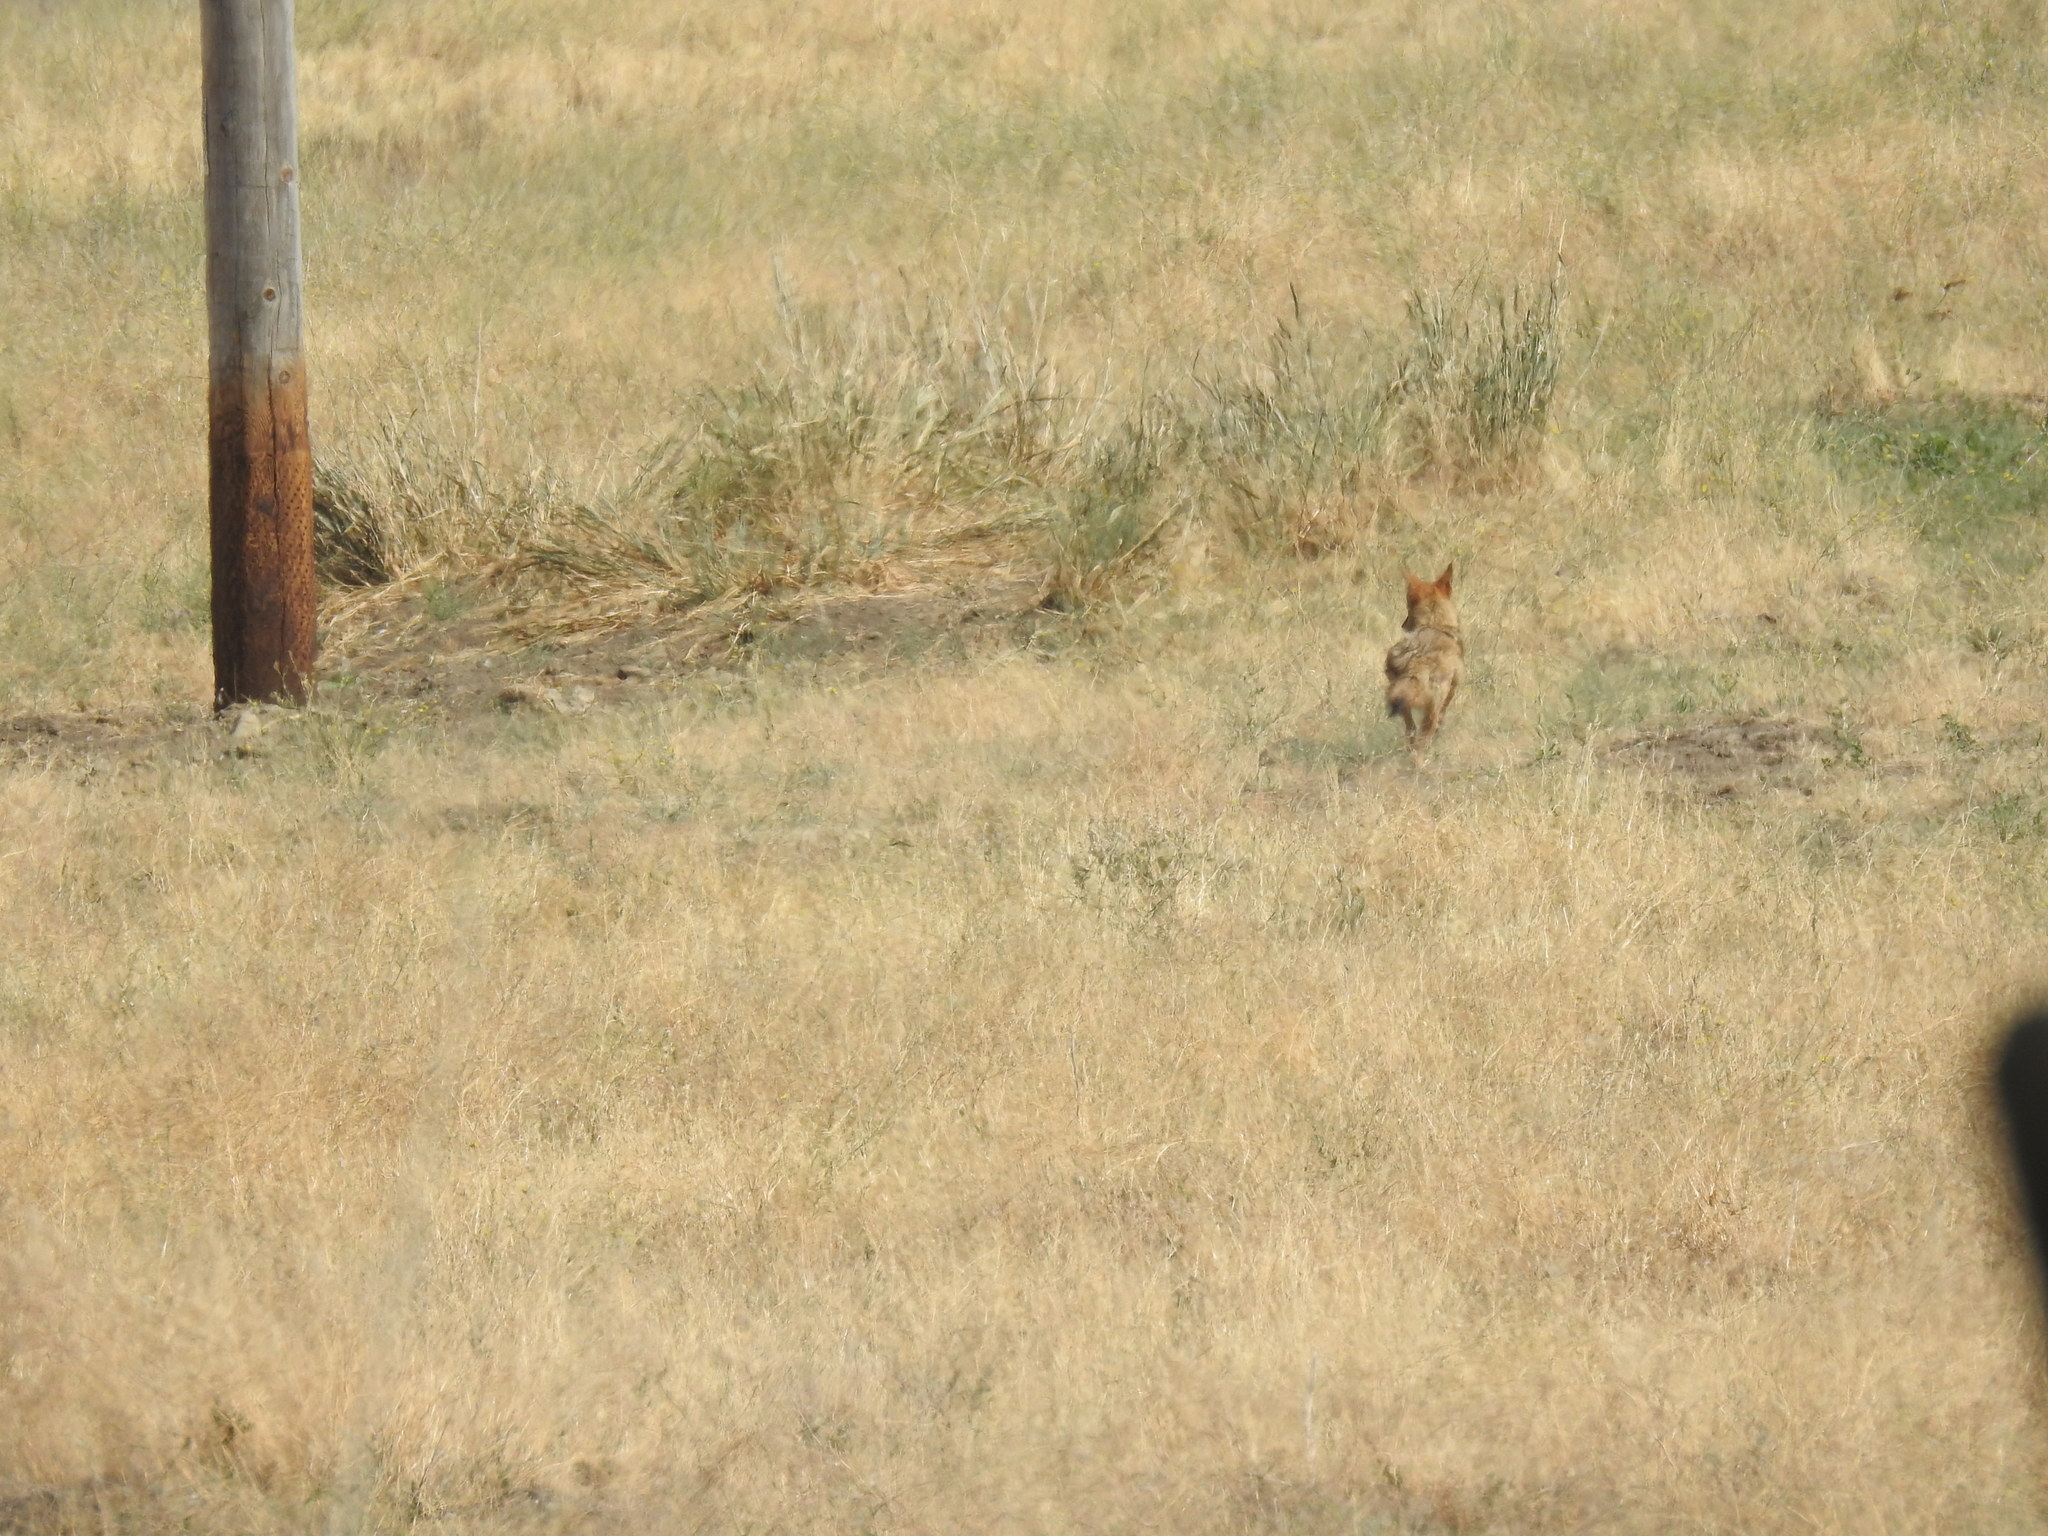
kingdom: Animalia
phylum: Chordata
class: Mammalia
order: Carnivora
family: Canidae
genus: Canis
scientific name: Canis latrans
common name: Coyote
